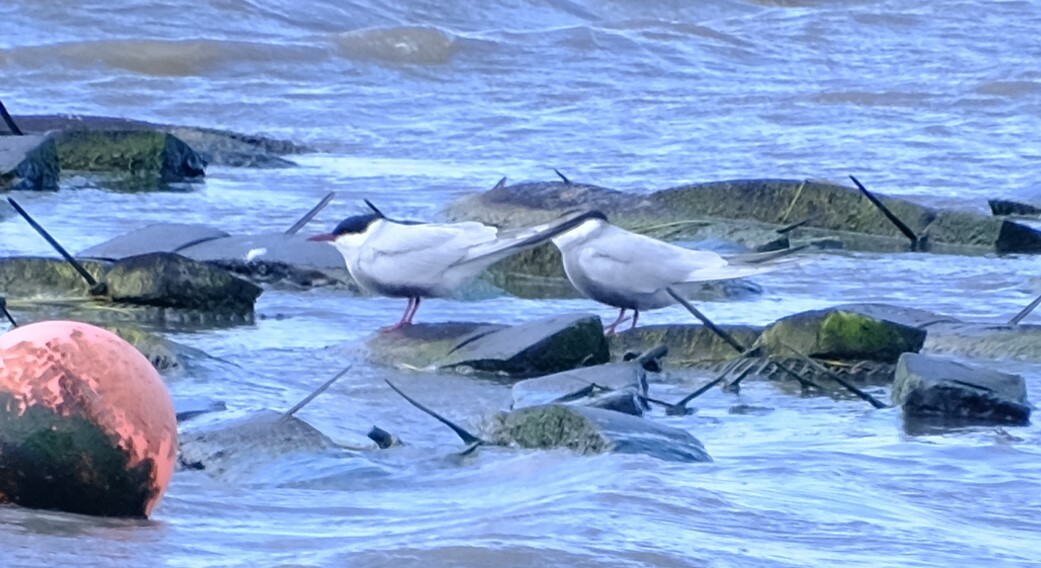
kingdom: Animalia
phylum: Chordata
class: Aves
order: Charadriiformes
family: Laridae
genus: Chlidonias
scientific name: Chlidonias hybrida
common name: Whiskered tern
